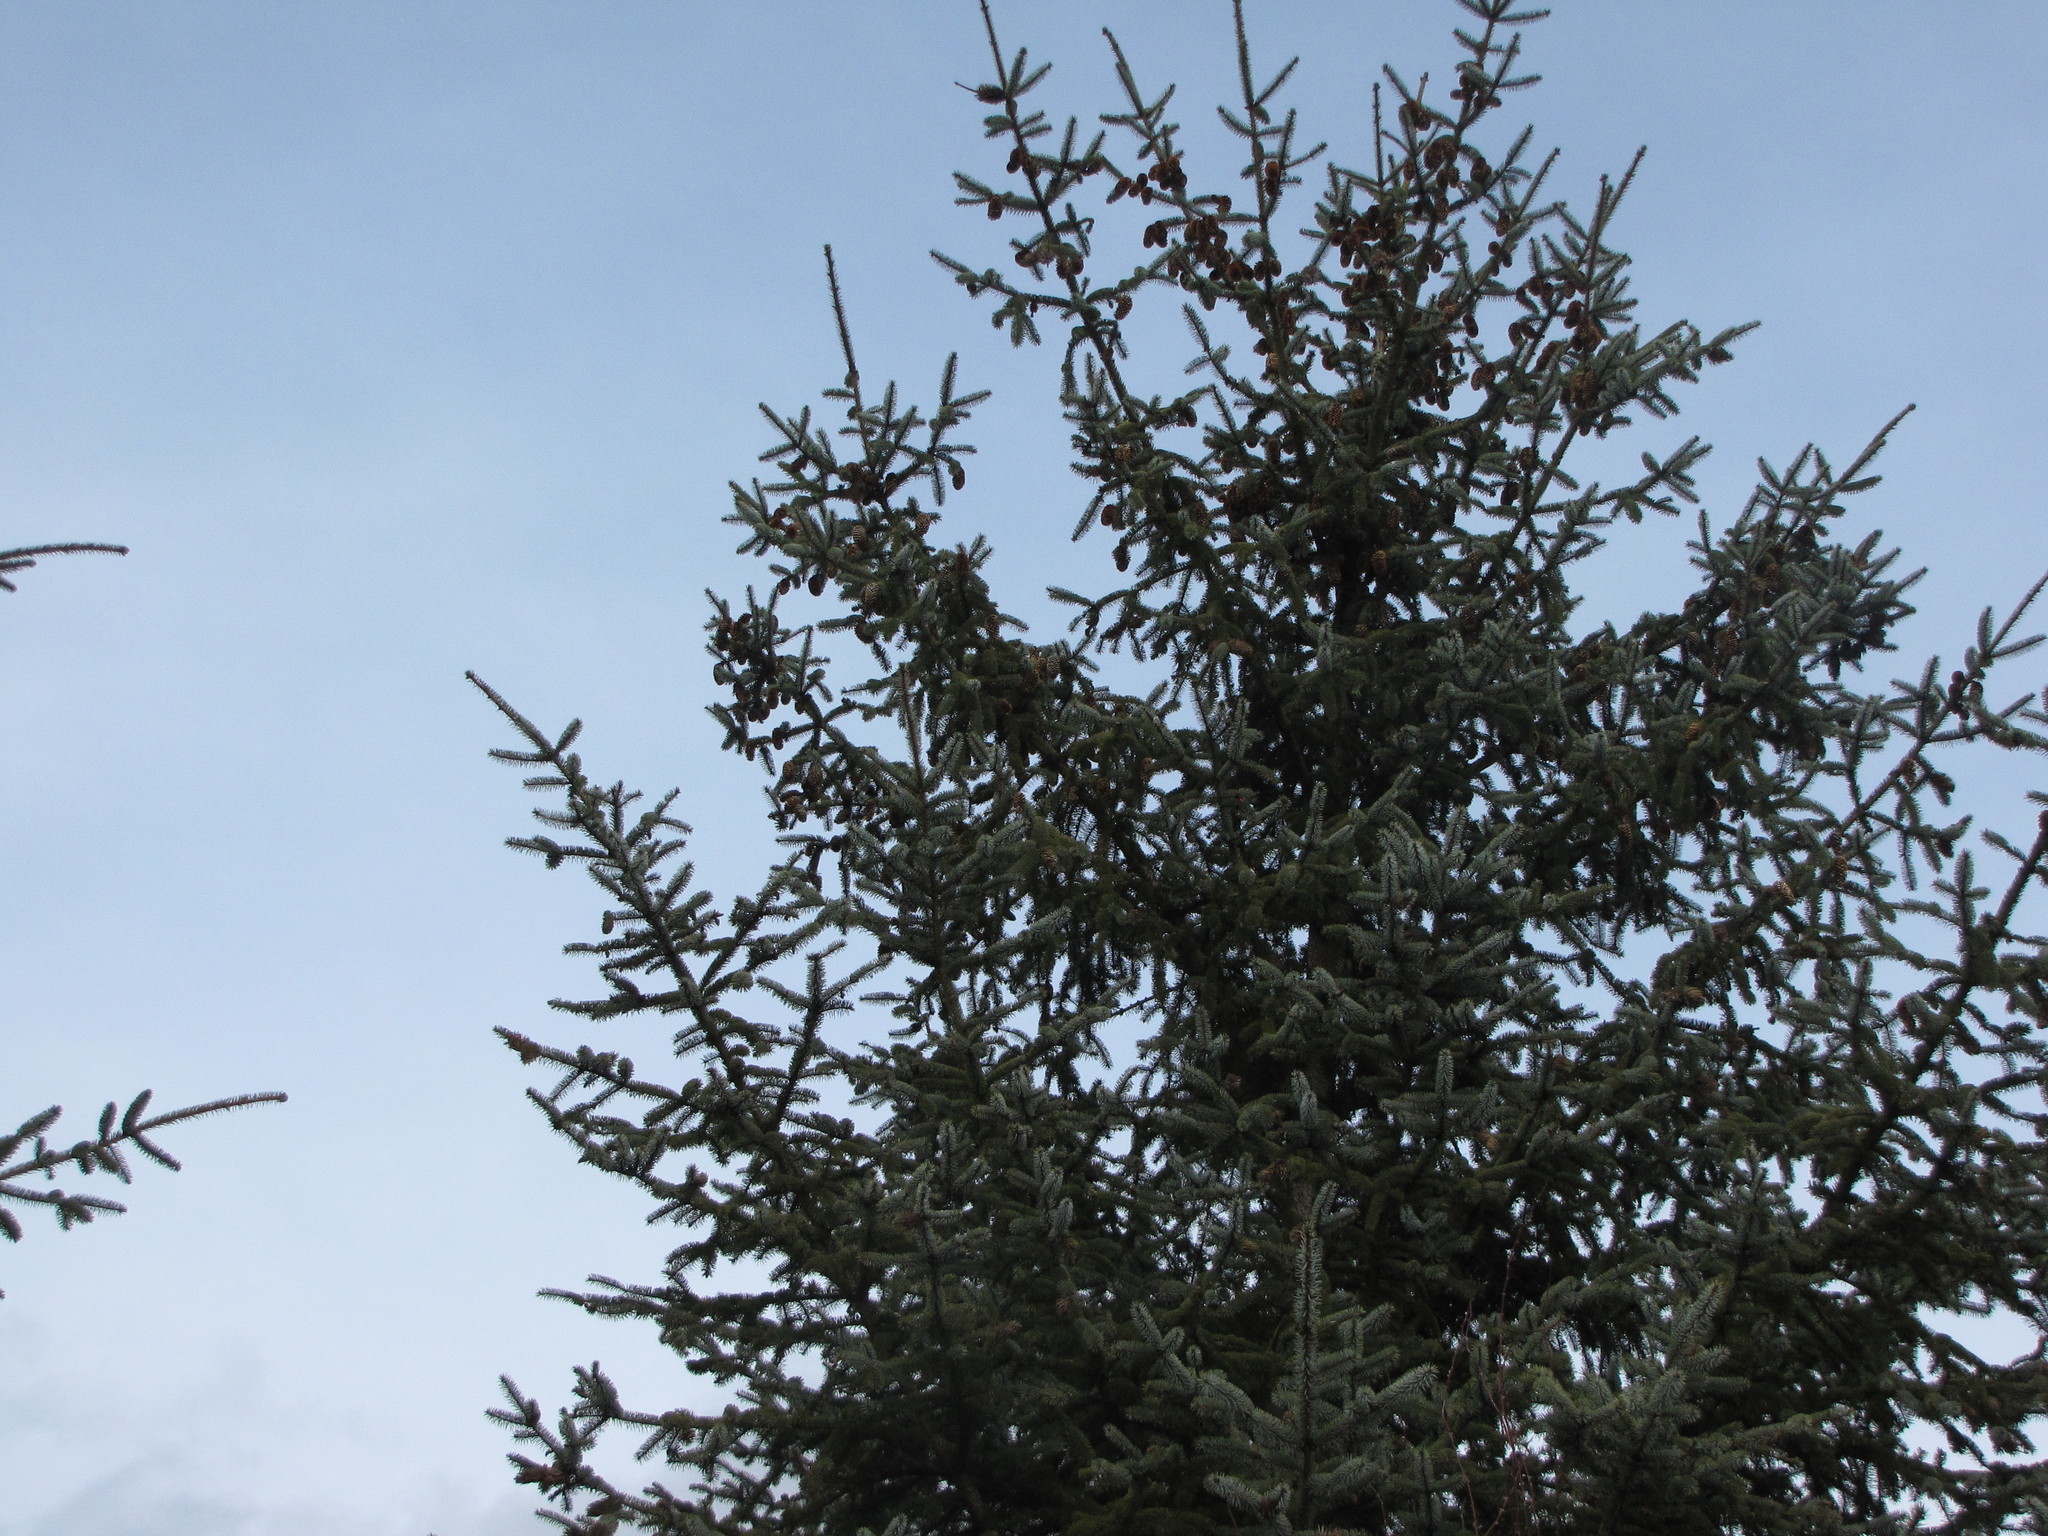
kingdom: Plantae
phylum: Tracheophyta
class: Pinopsida
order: Pinales
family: Pinaceae
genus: Picea
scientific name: Picea sitchensis
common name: Sitka spruce
